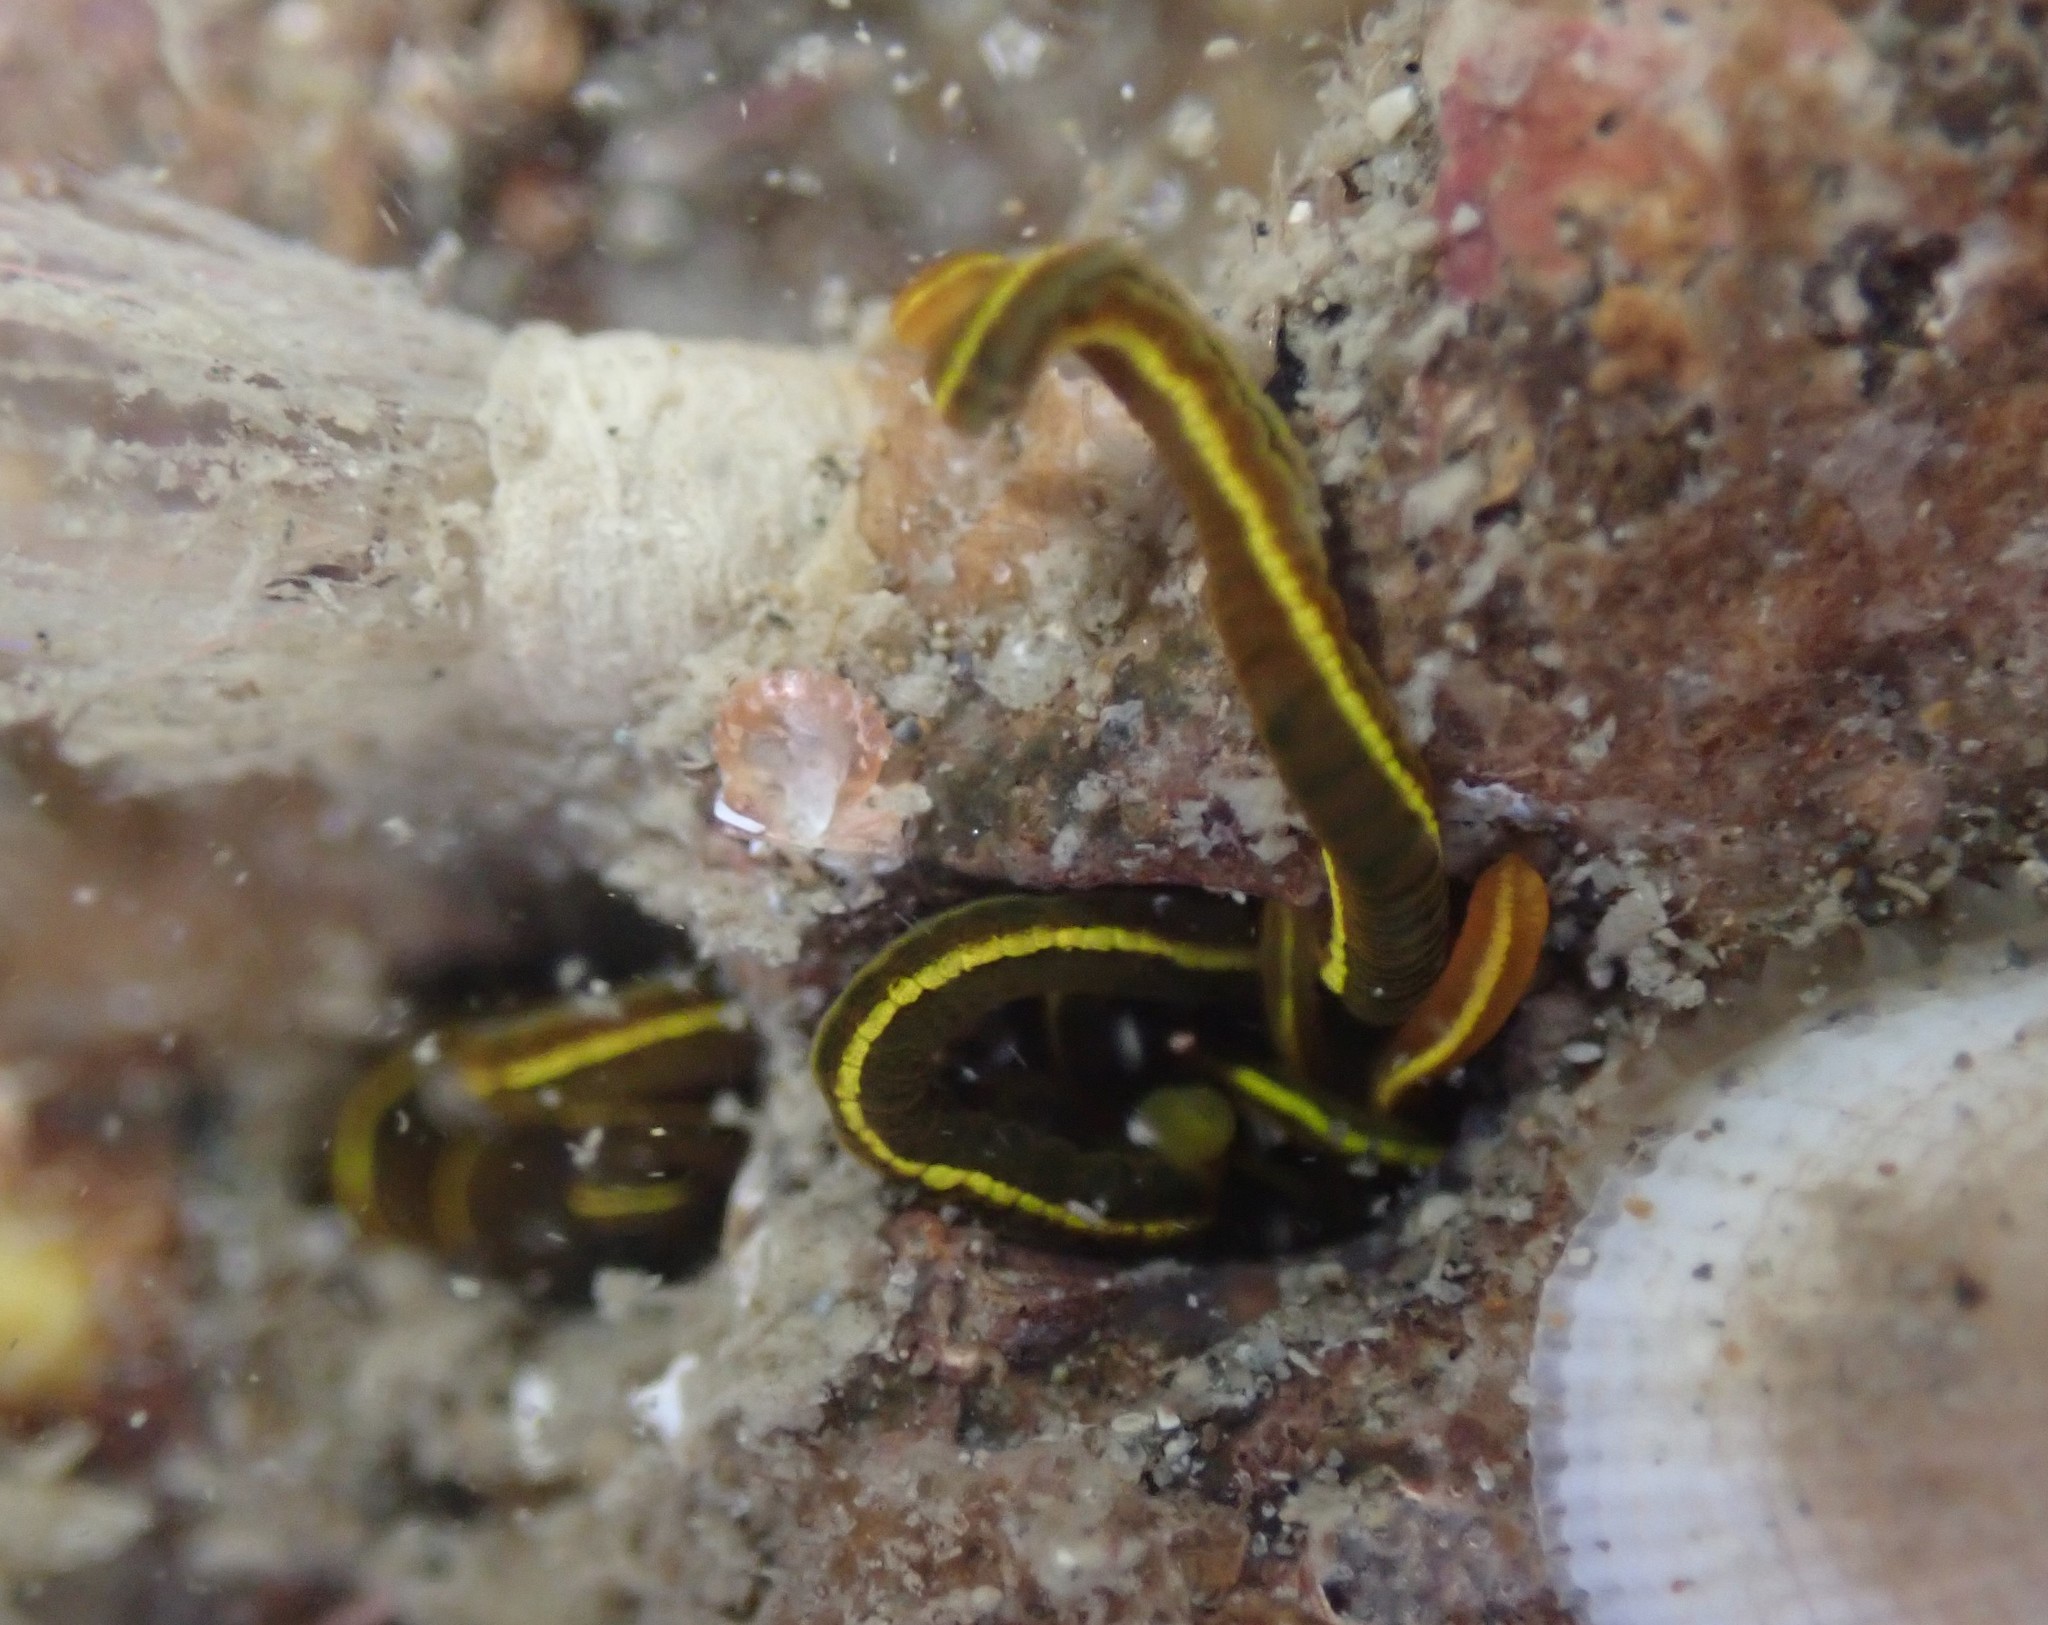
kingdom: Animalia
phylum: Annelida
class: Polychaeta
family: Acrocirridae
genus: Acrocirrus
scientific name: Acrocirrus
